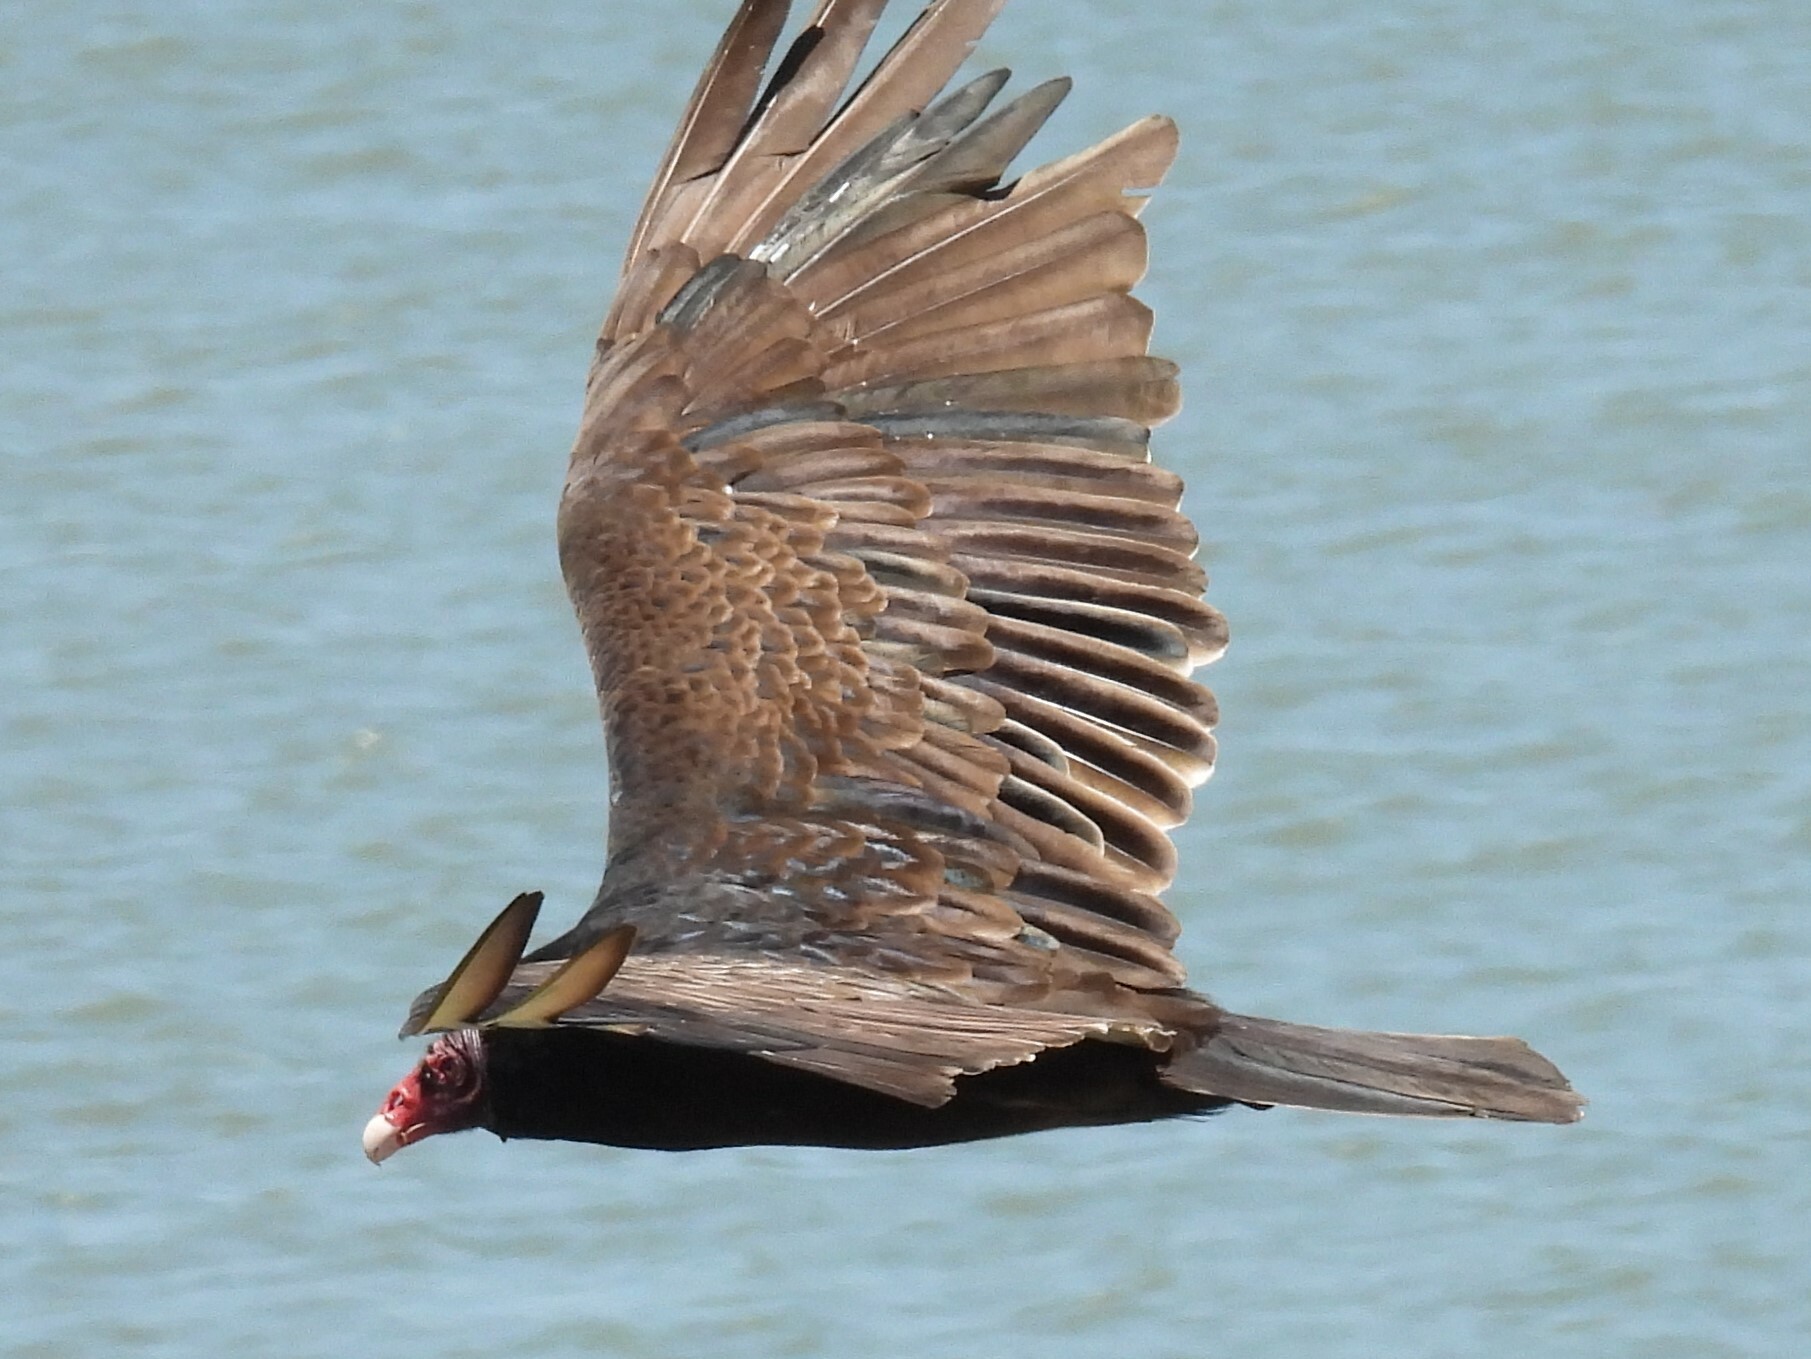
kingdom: Animalia
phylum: Chordata
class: Aves
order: Accipitriformes
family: Cathartidae
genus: Cathartes
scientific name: Cathartes aura
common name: Turkey vulture
